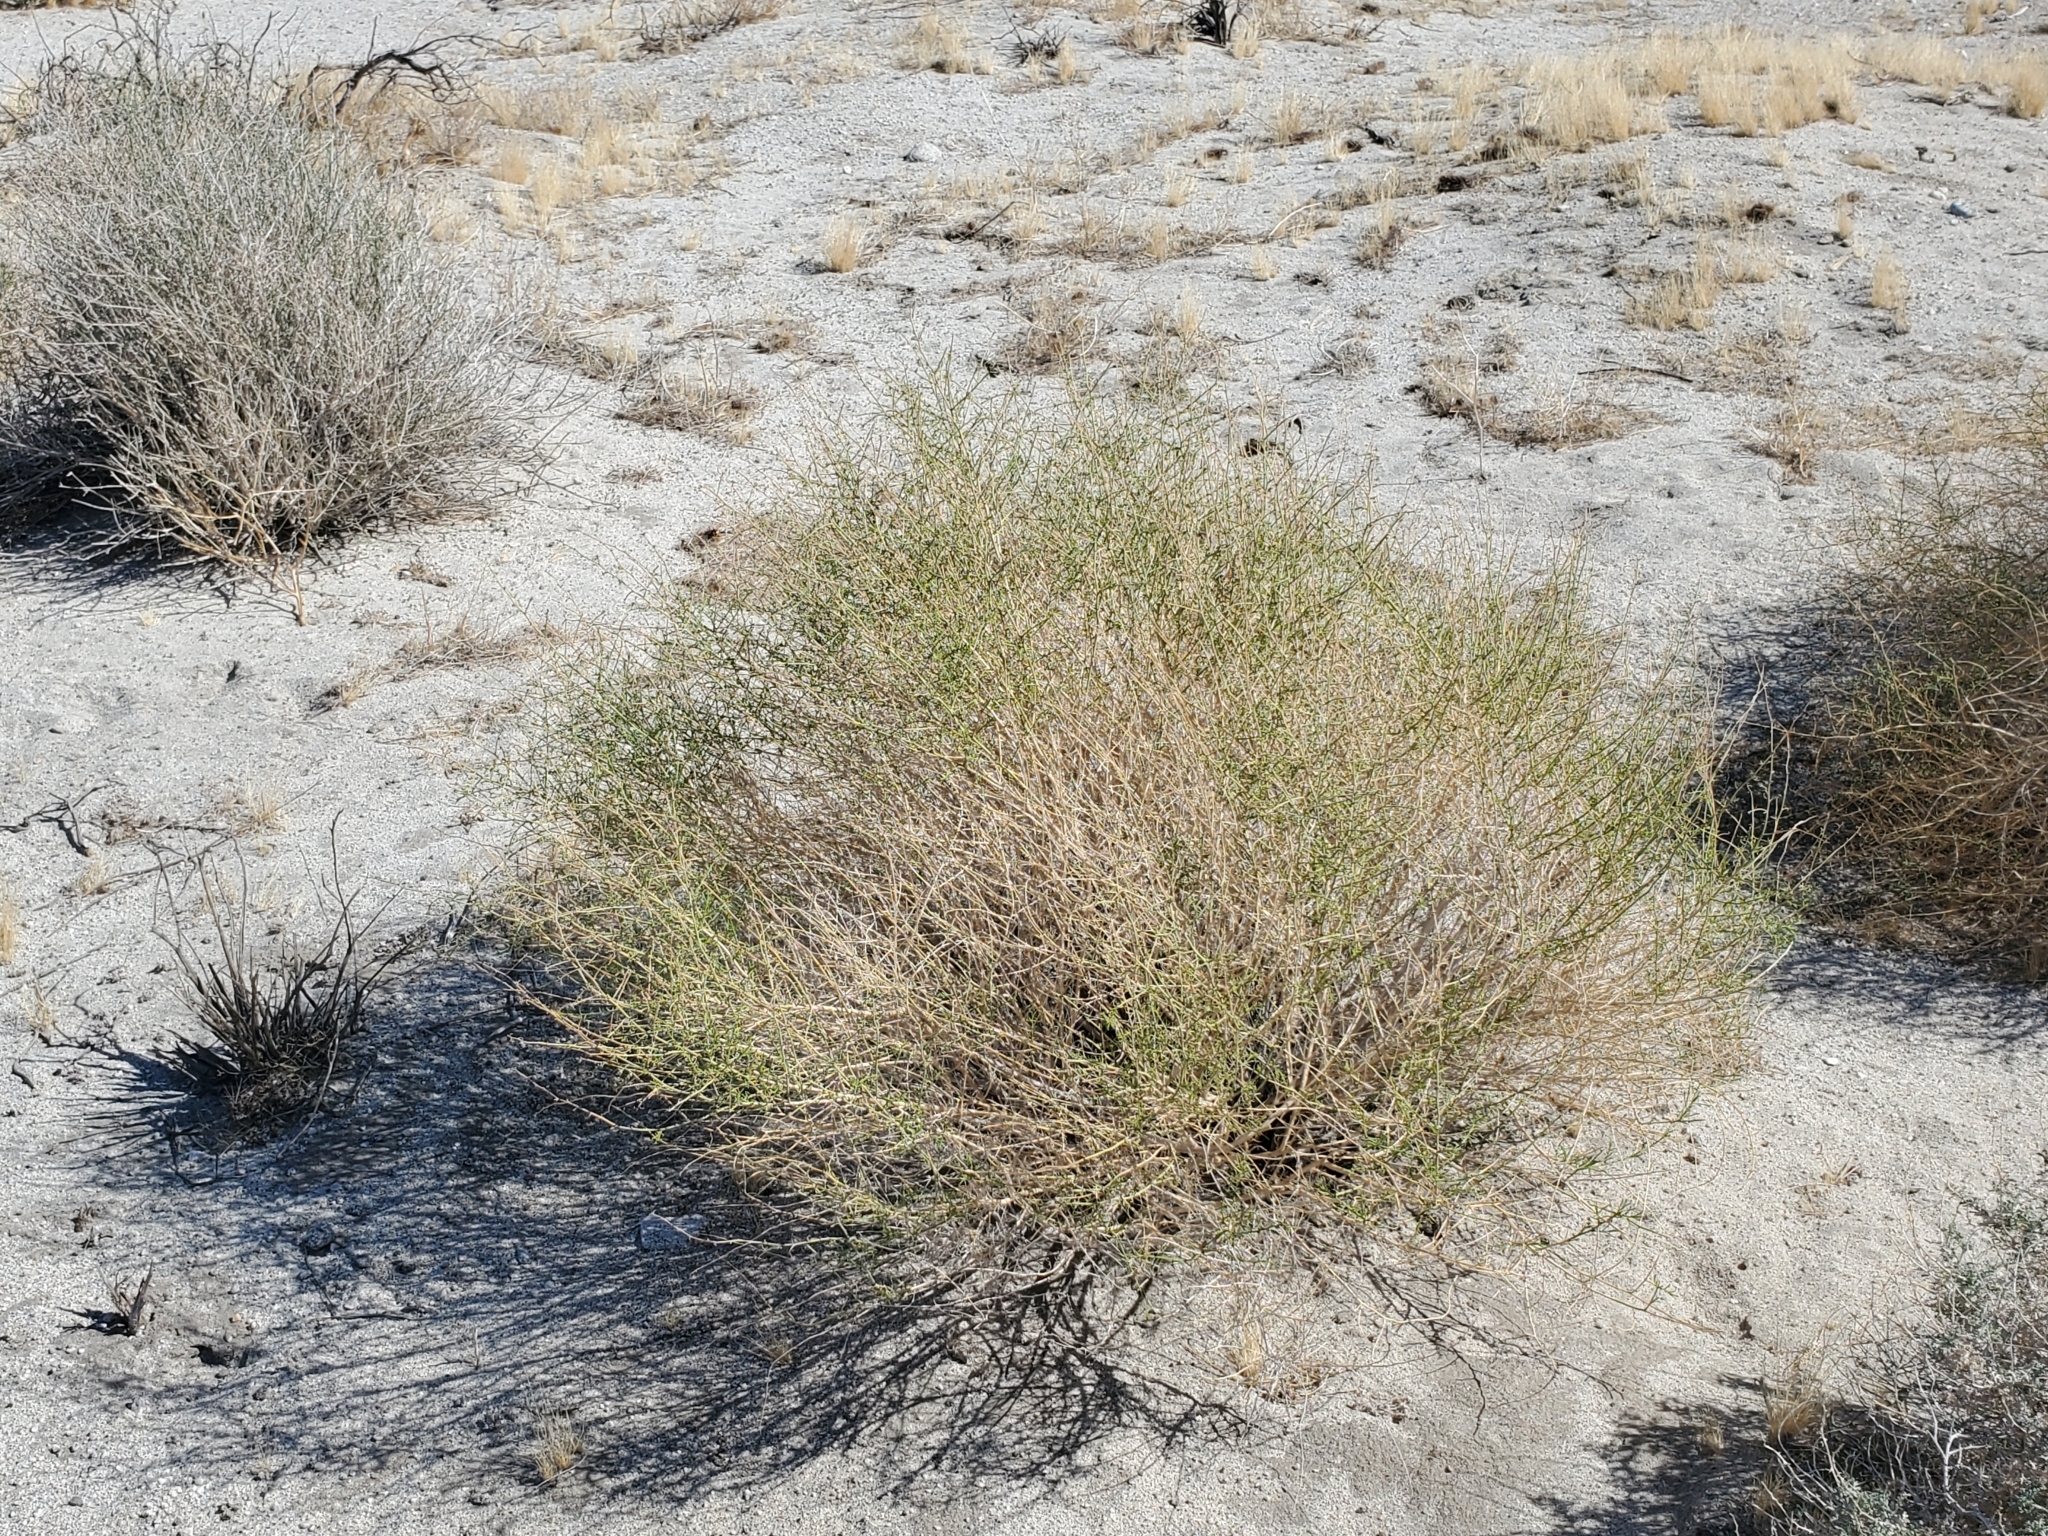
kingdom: Plantae
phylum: Tracheophyta
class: Magnoliopsida
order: Asterales
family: Asteraceae
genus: Ambrosia
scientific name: Ambrosia salsola
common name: Burrobrush
